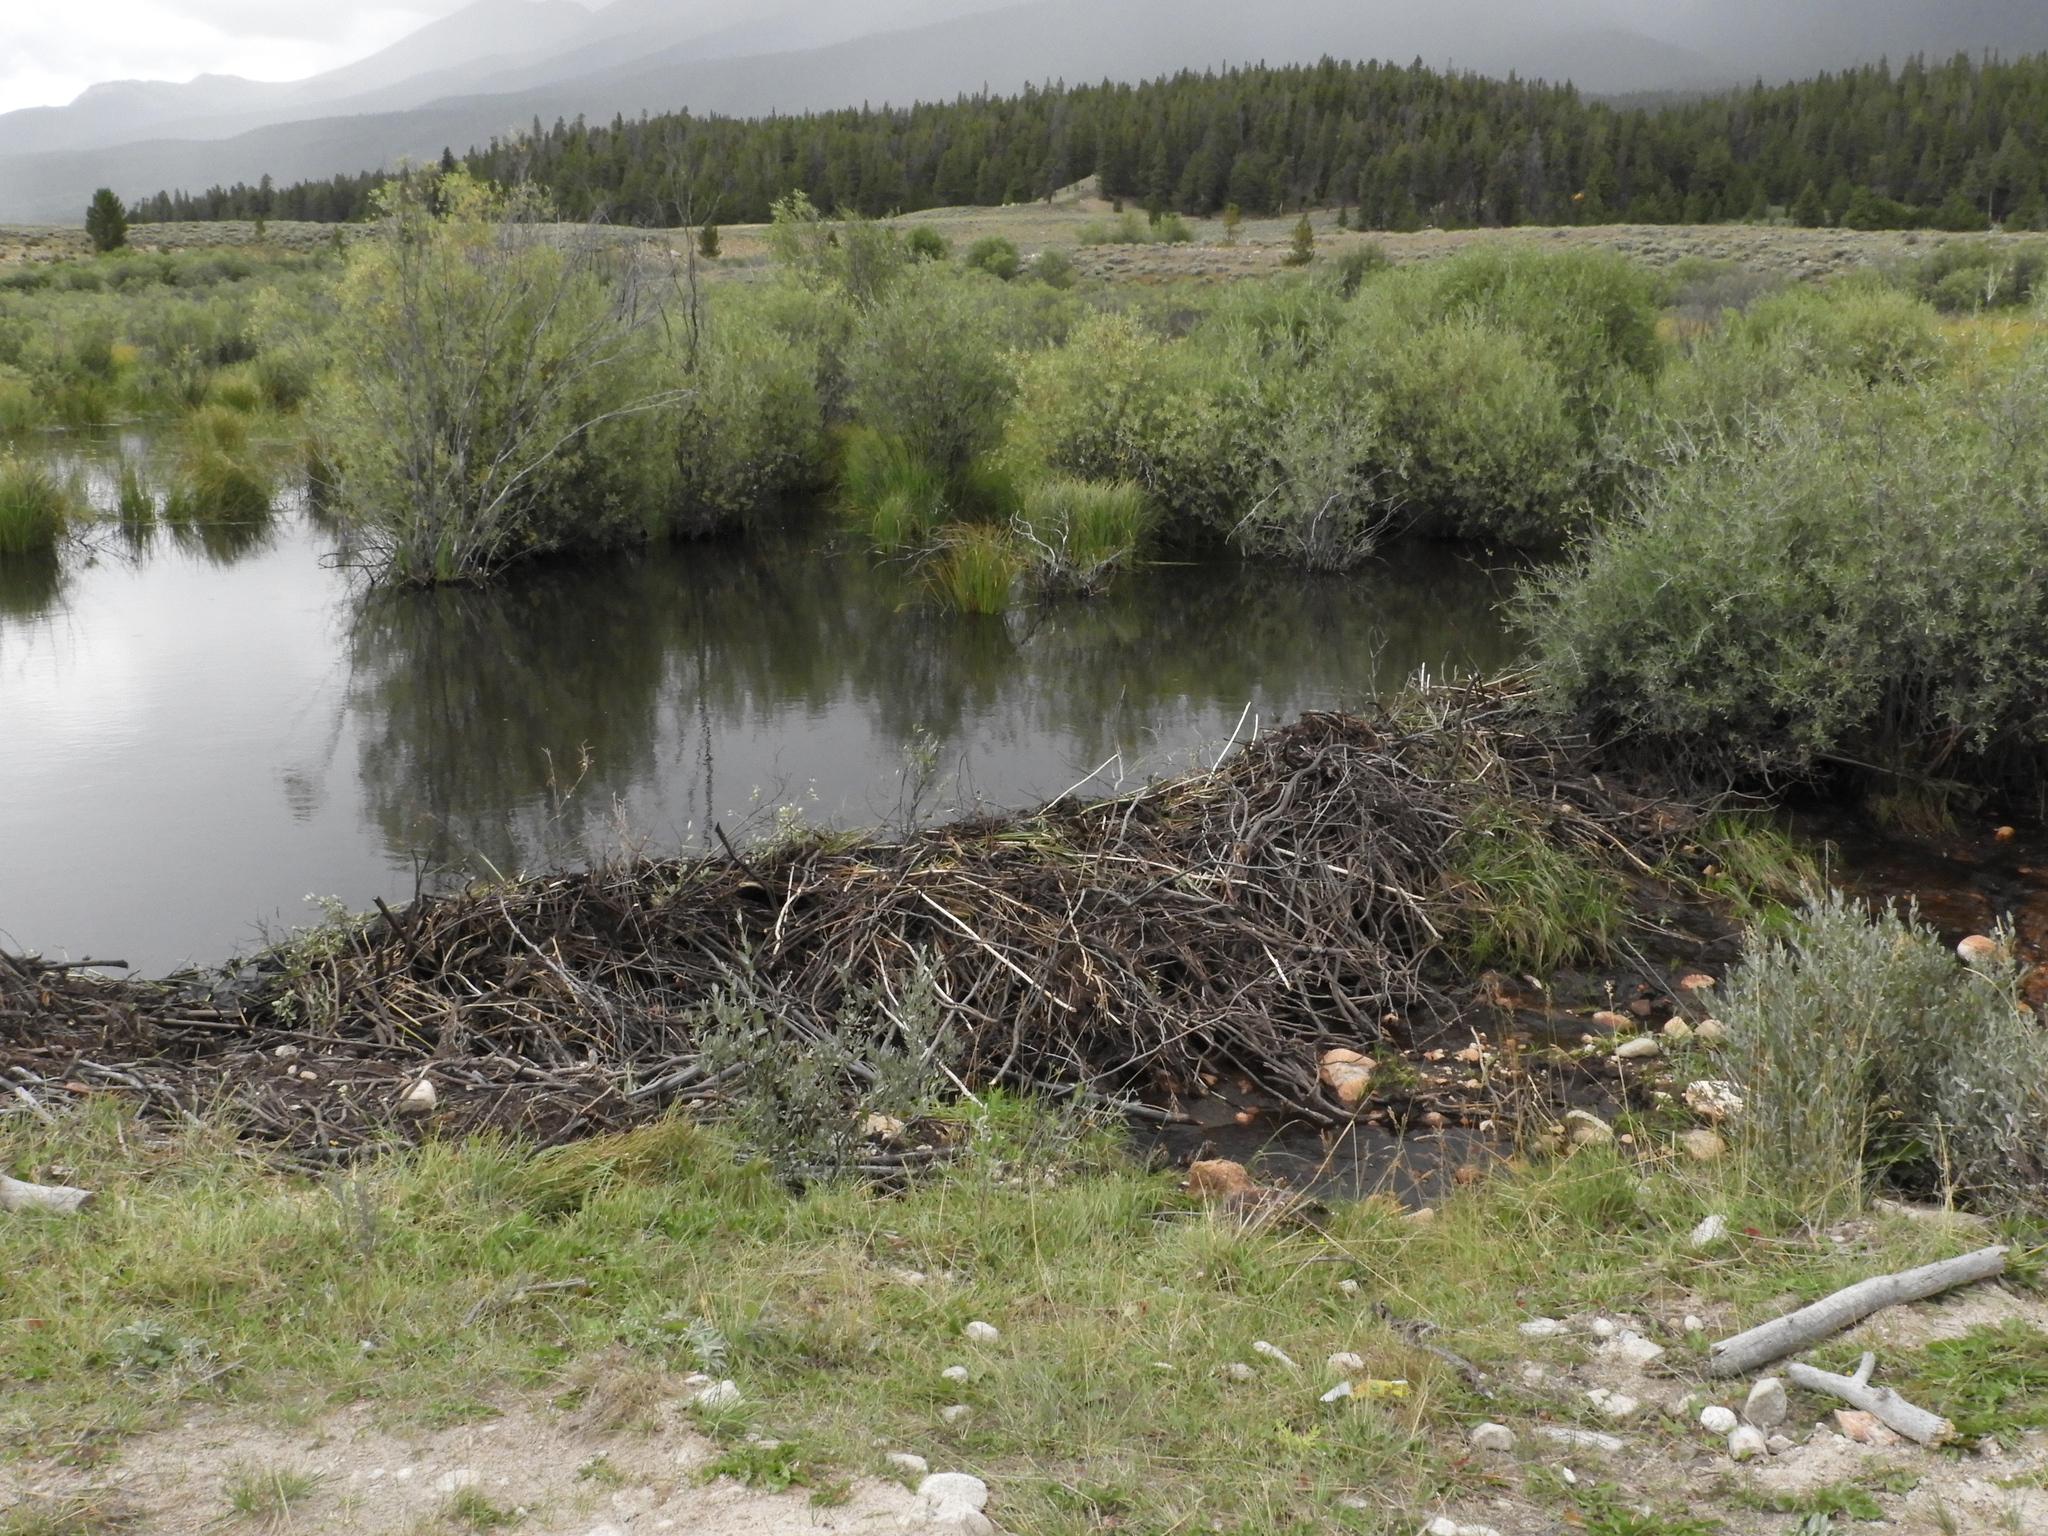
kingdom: Animalia
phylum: Chordata
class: Mammalia
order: Rodentia
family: Castoridae
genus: Castor
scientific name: Castor canadensis
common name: American beaver
